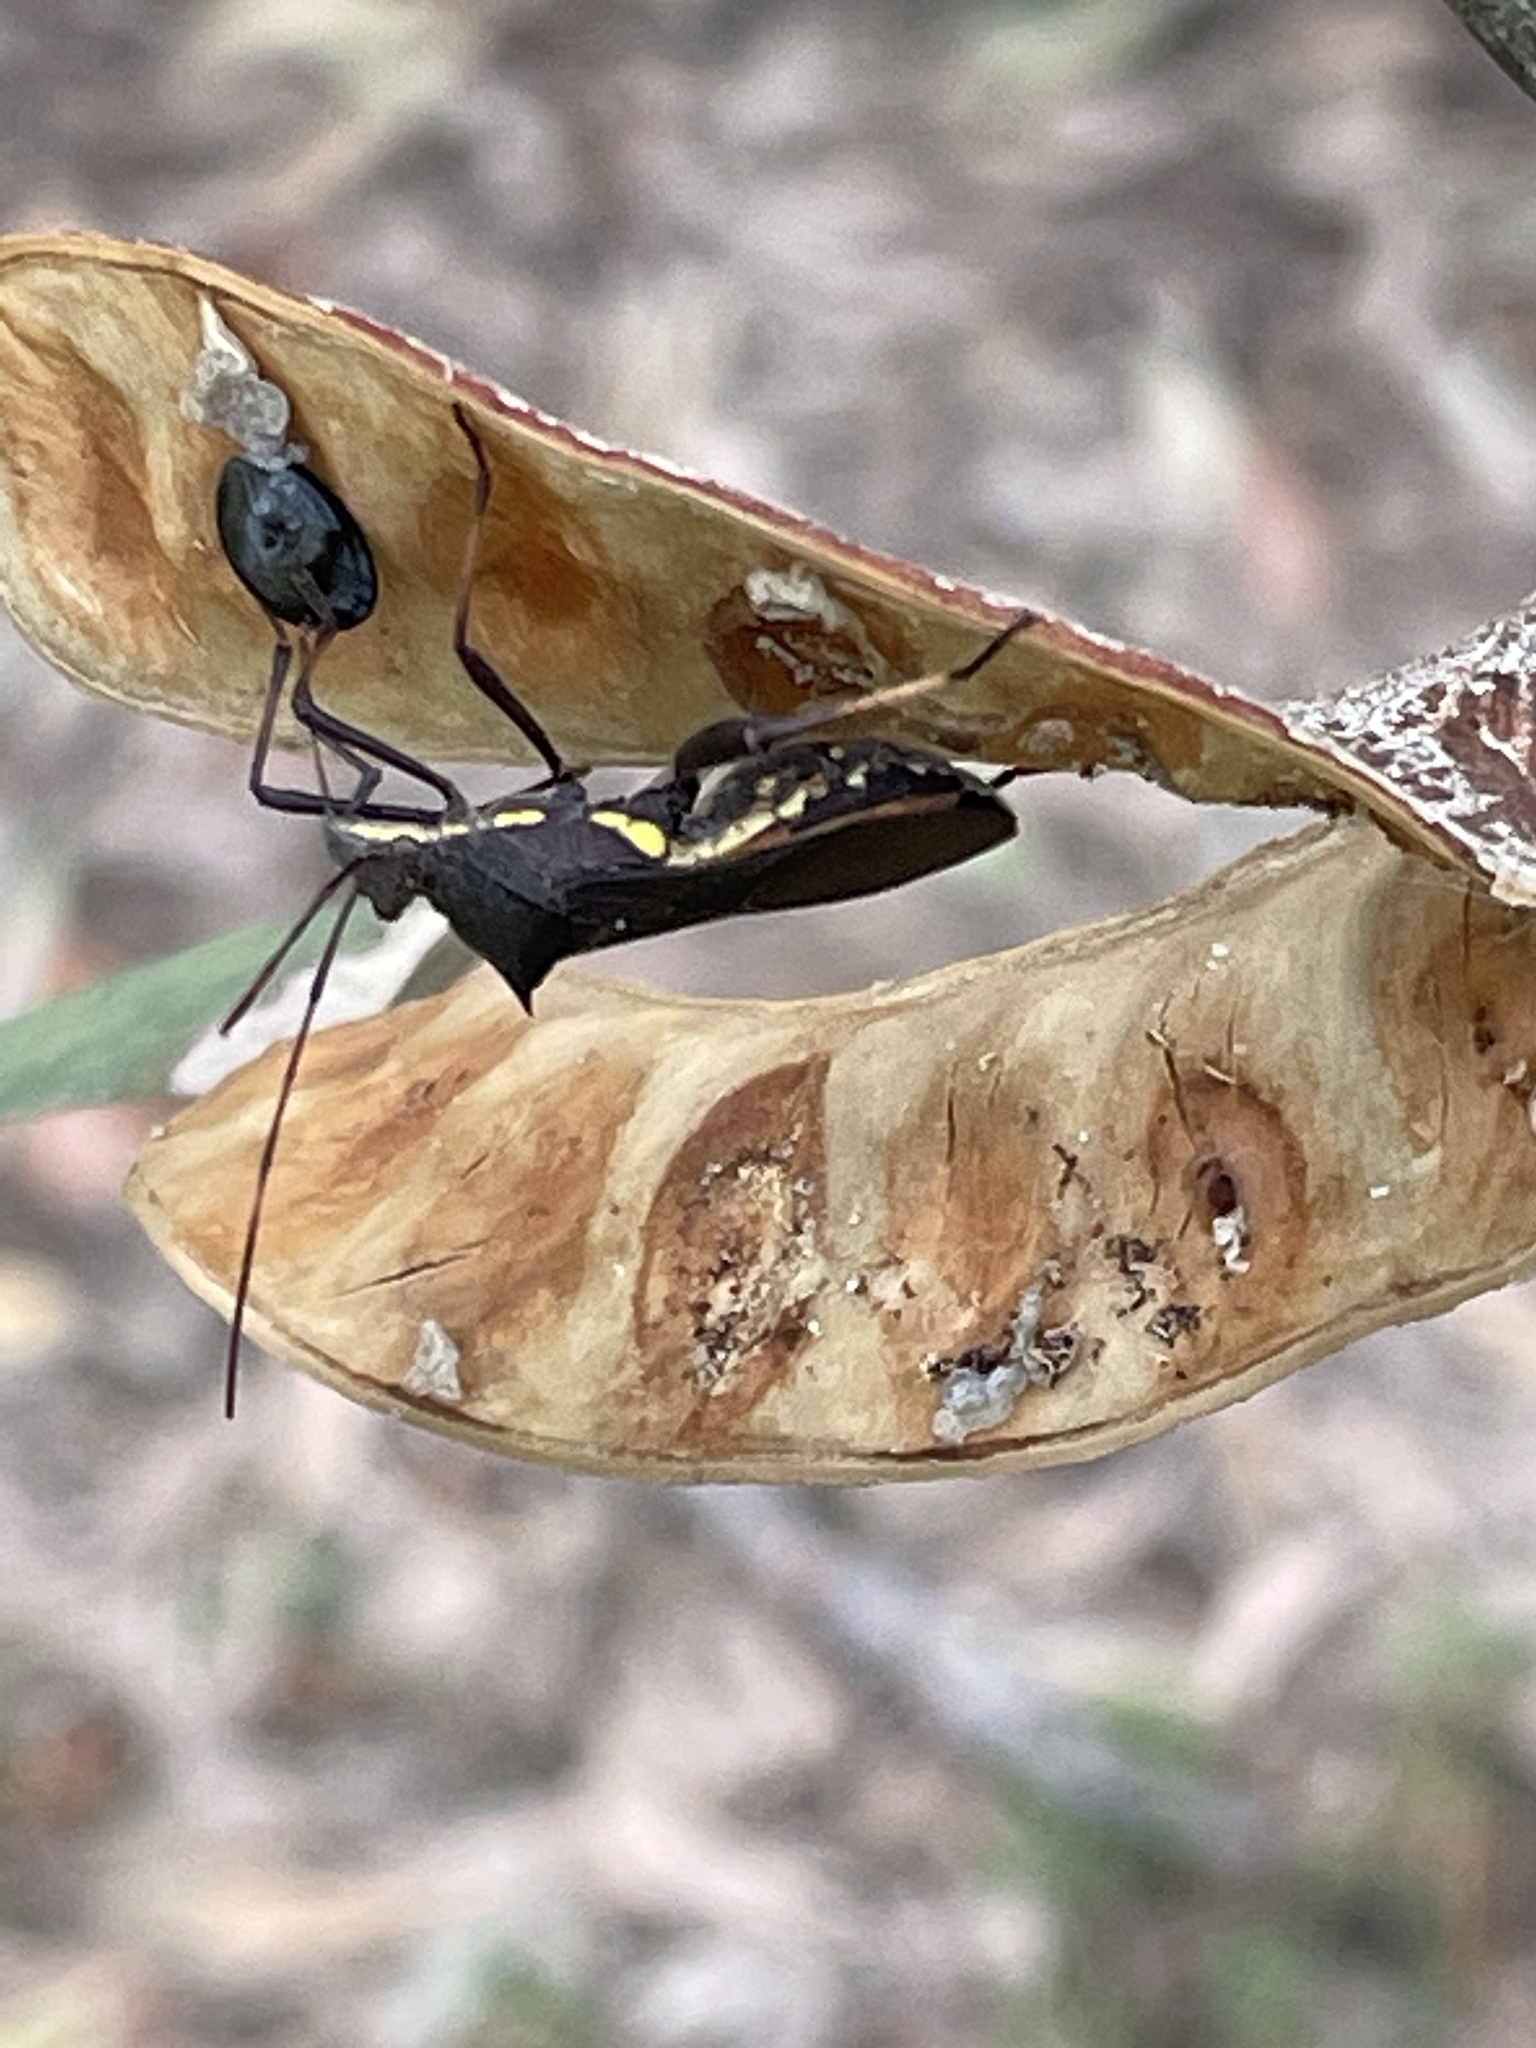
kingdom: Animalia
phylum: Arthropoda
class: Insecta
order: Hemiptera
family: Alydidae
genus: Riptortus
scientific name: Riptortus serripes
